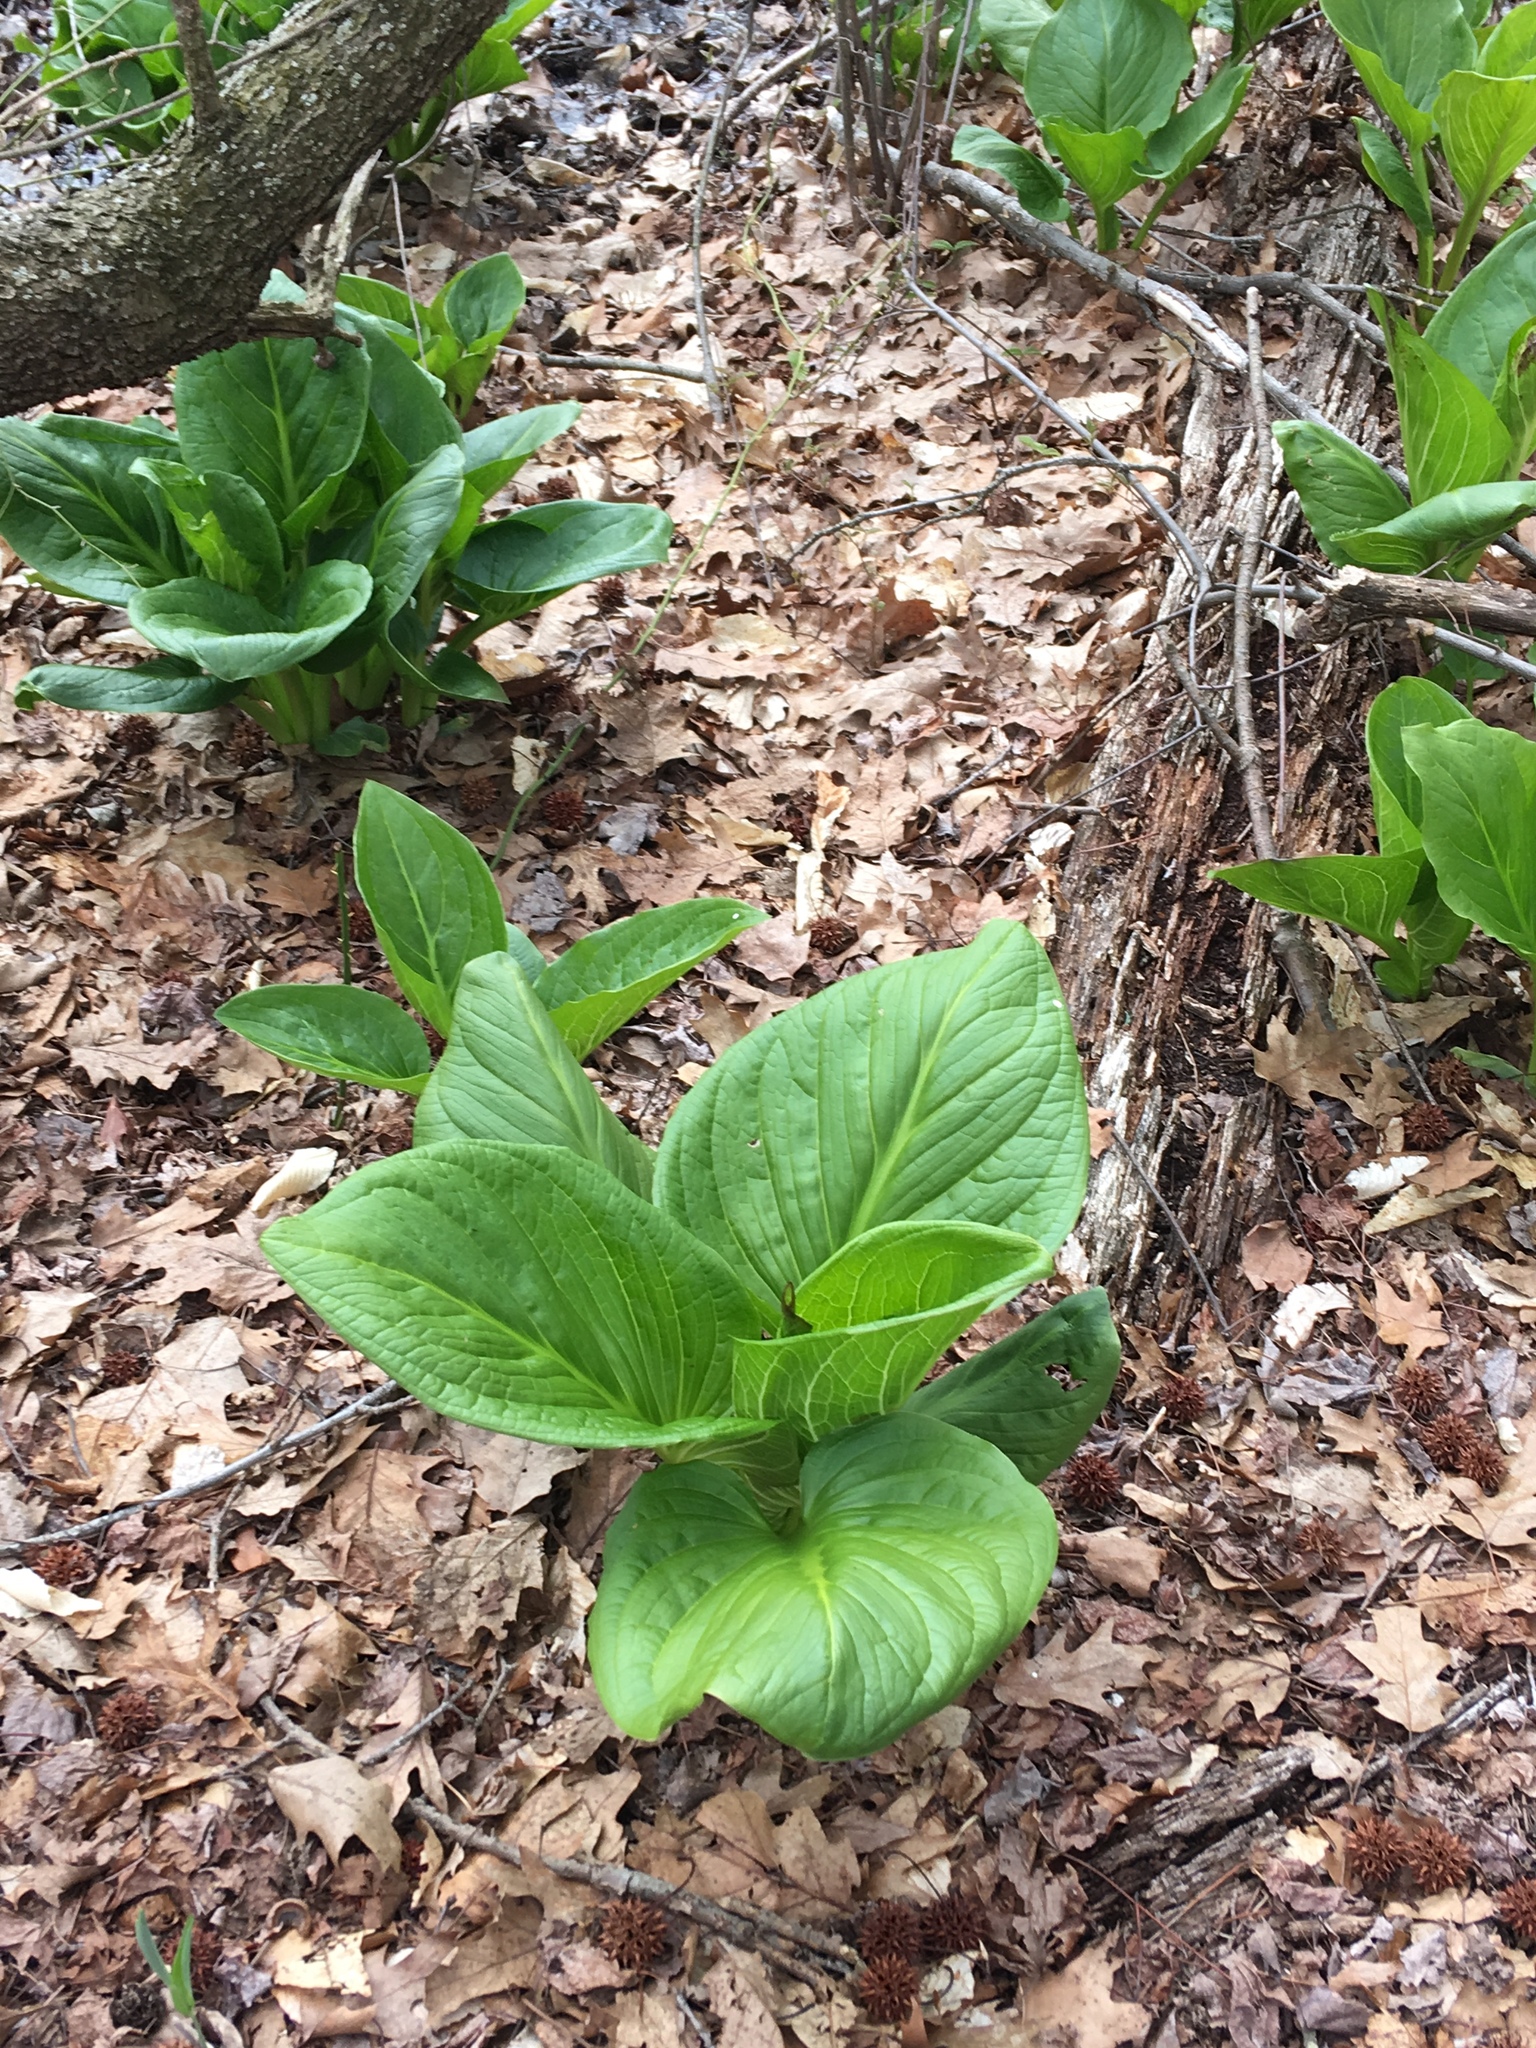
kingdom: Plantae
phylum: Tracheophyta
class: Liliopsida
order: Alismatales
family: Araceae
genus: Symplocarpus
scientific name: Symplocarpus foetidus
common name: Eastern skunk cabbage
